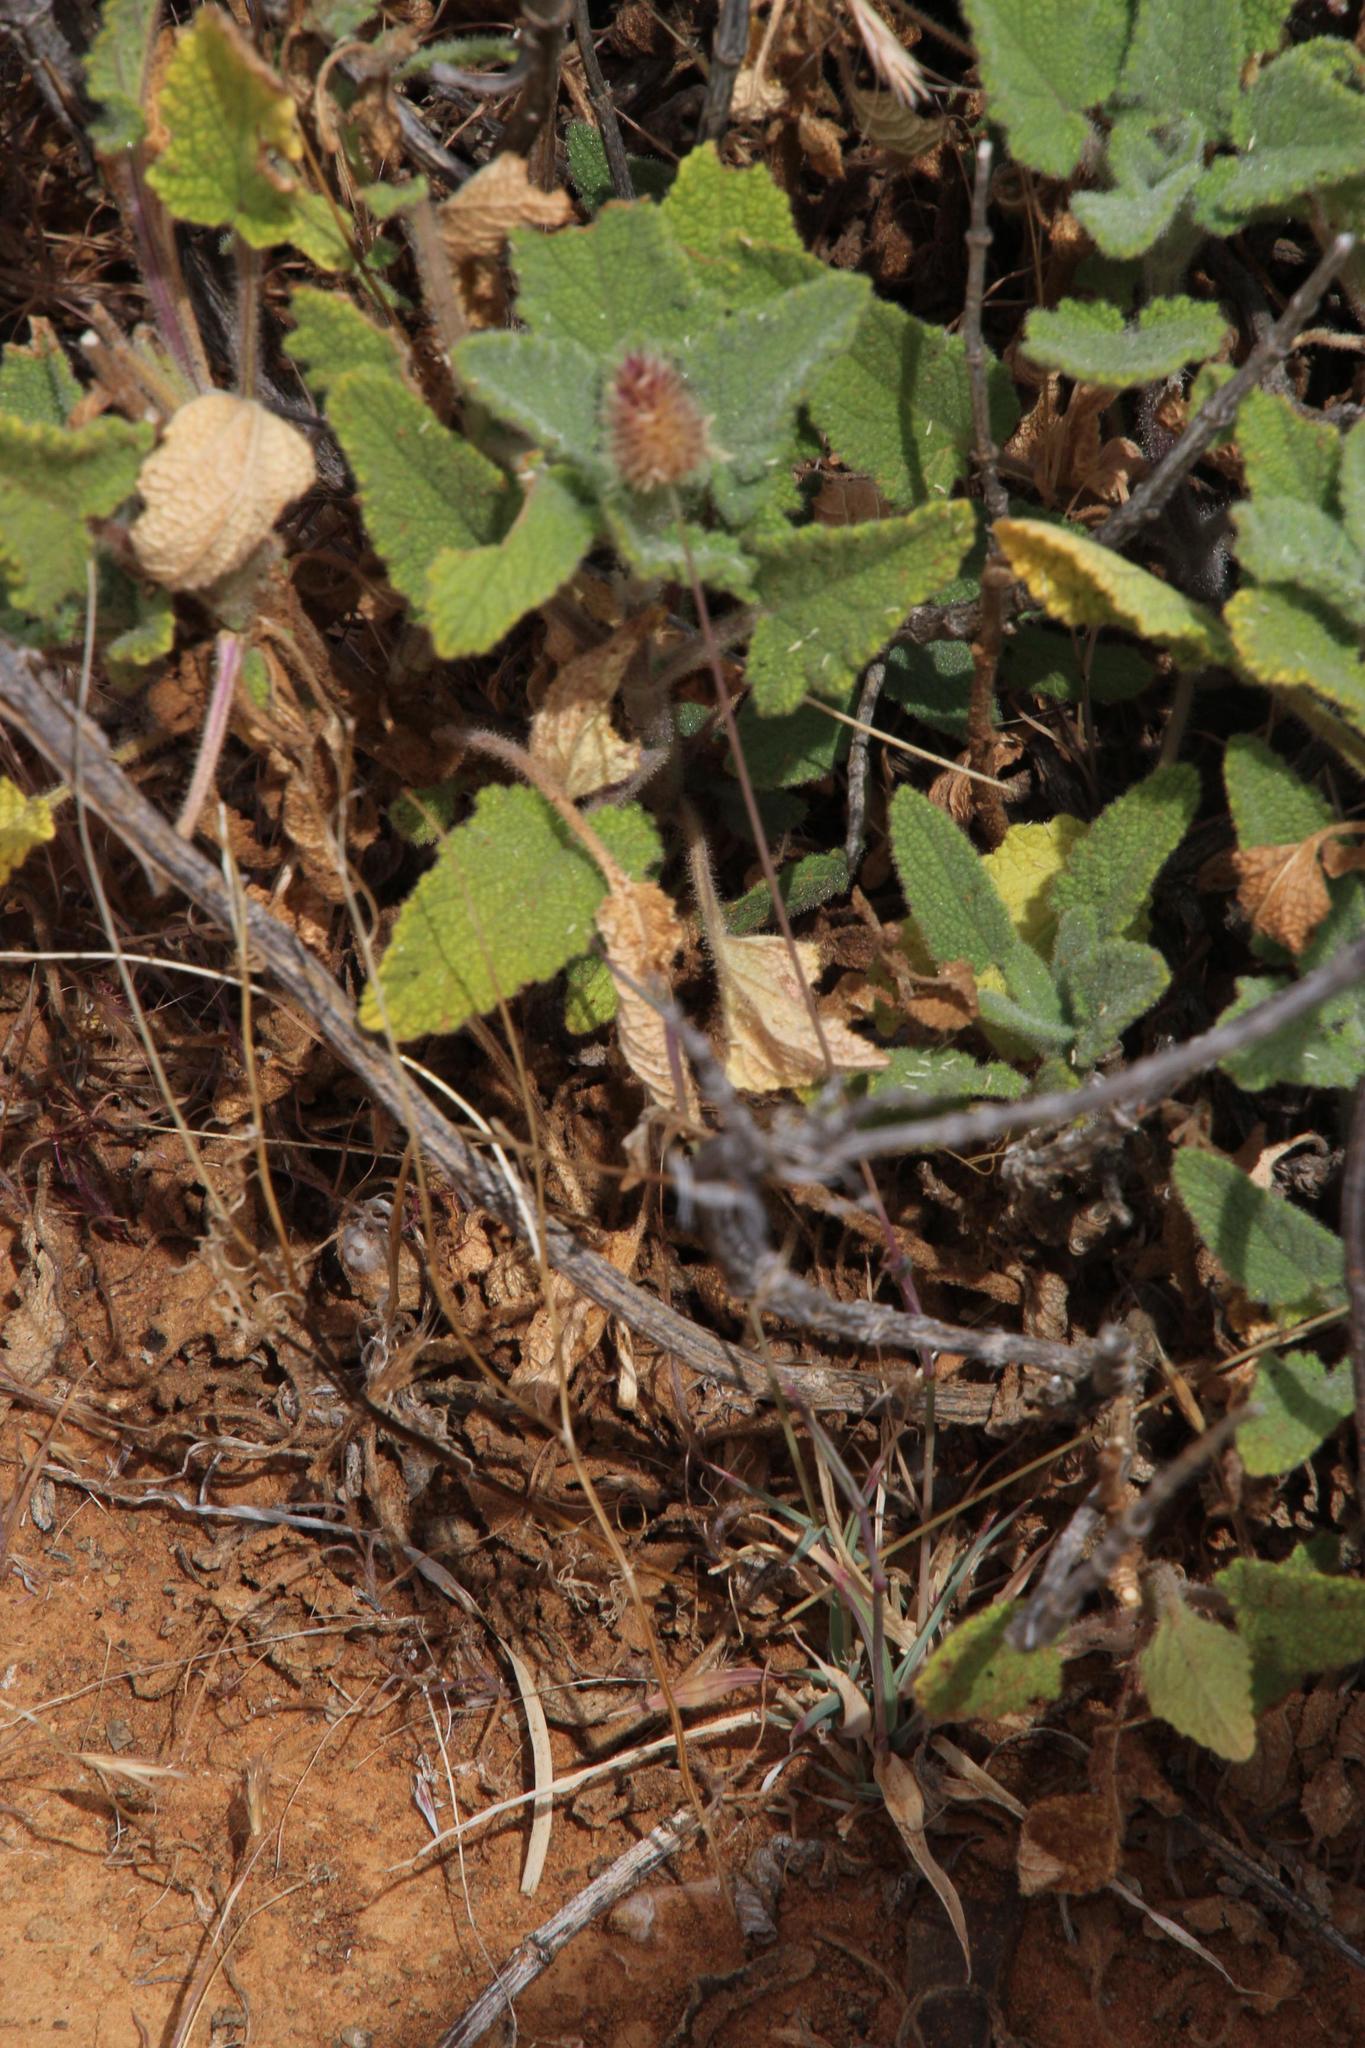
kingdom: Plantae
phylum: Tracheophyta
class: Magnoliopsida
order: Lamiales
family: Lamiaceae
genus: Salvia
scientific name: Salvia disermas
